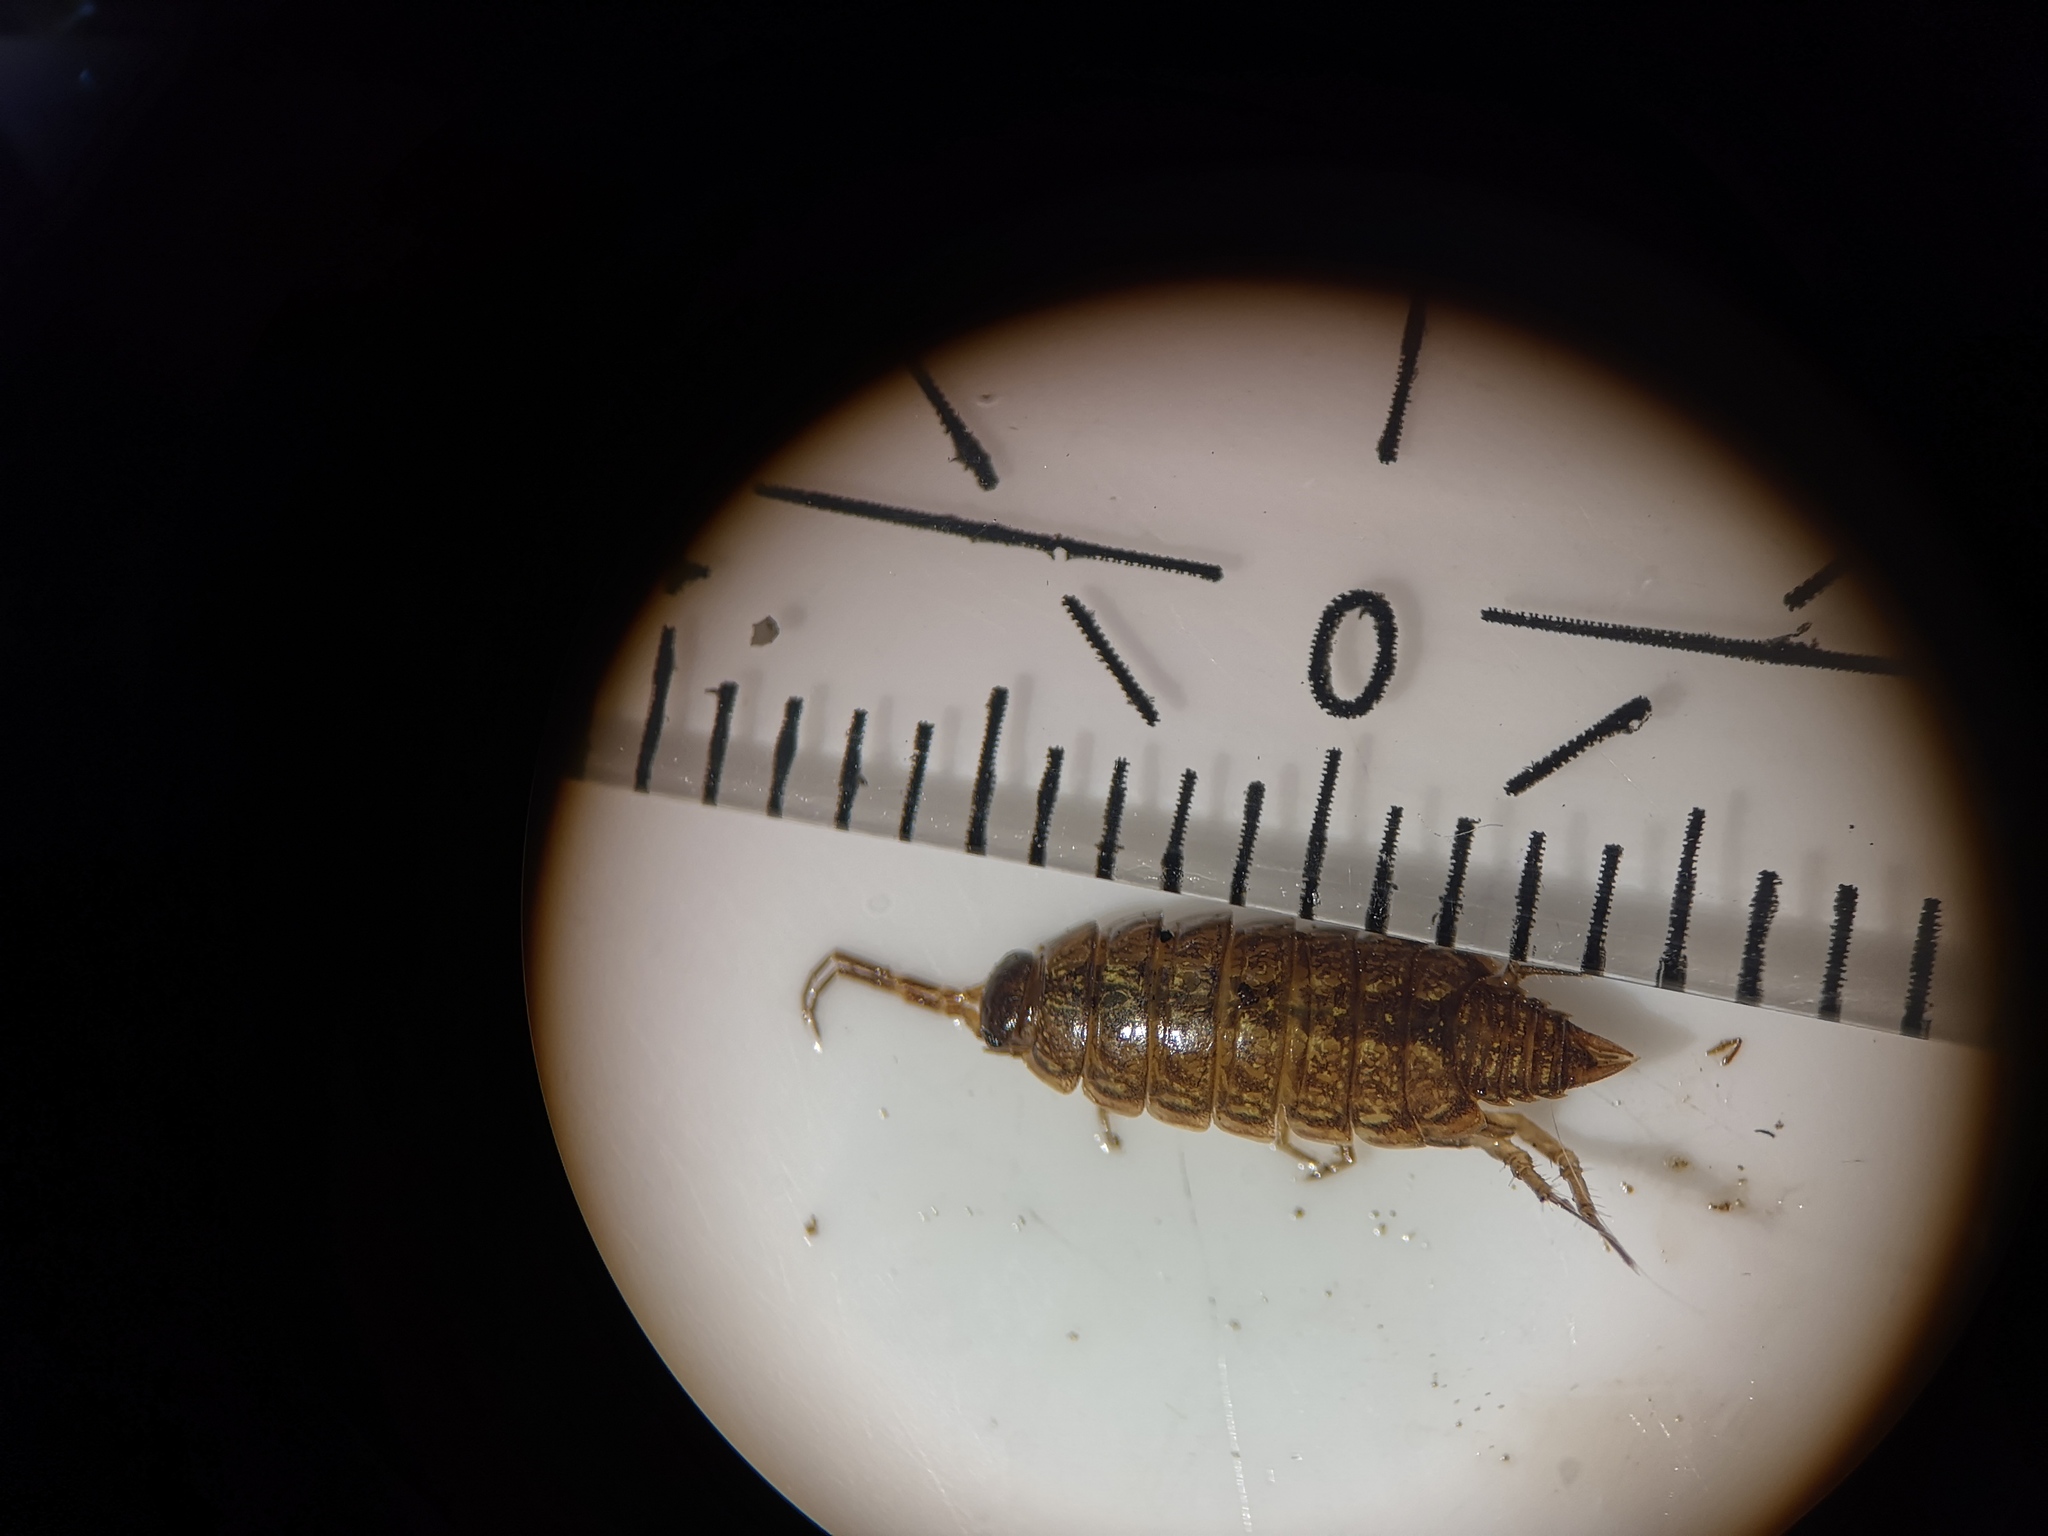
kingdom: Animalia
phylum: Arthropoda
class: Malacostraca
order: Isopoda
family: Philosciidae
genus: Philoscia
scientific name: Philoscia muscorum
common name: Common striped woodlouse
